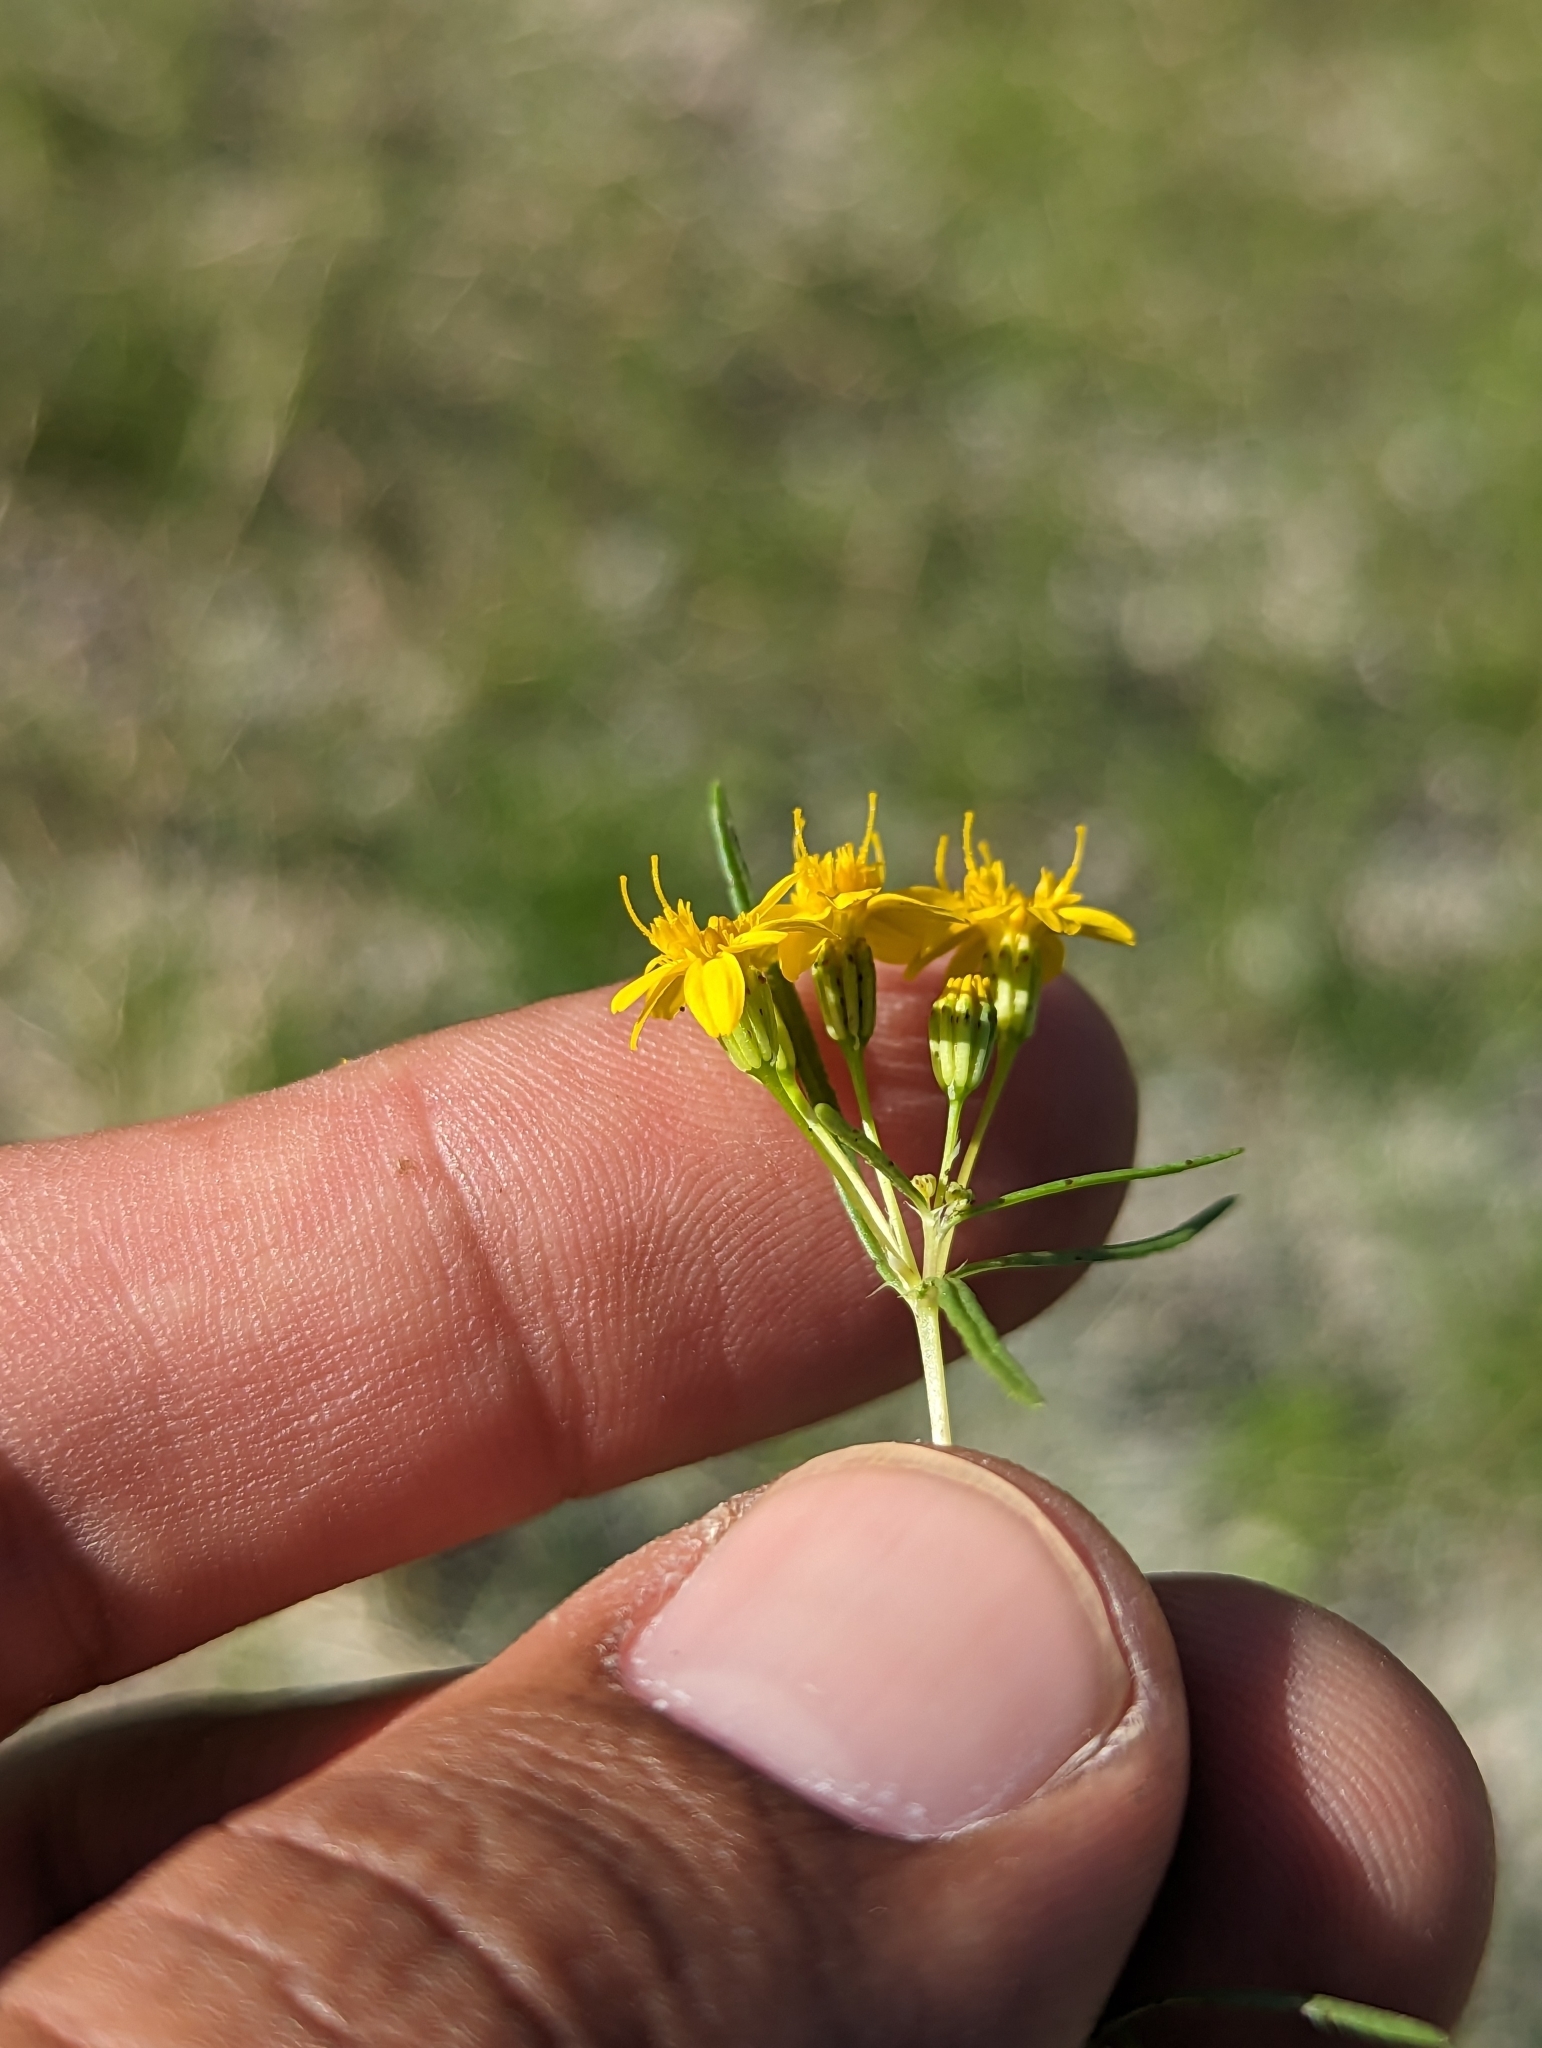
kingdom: Plantae
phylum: Tracheophyta
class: Magnoliopsida
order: Asterales
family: Asteraceae
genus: Pectis
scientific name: Pectis papposa
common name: Many-bristle chinchweed
